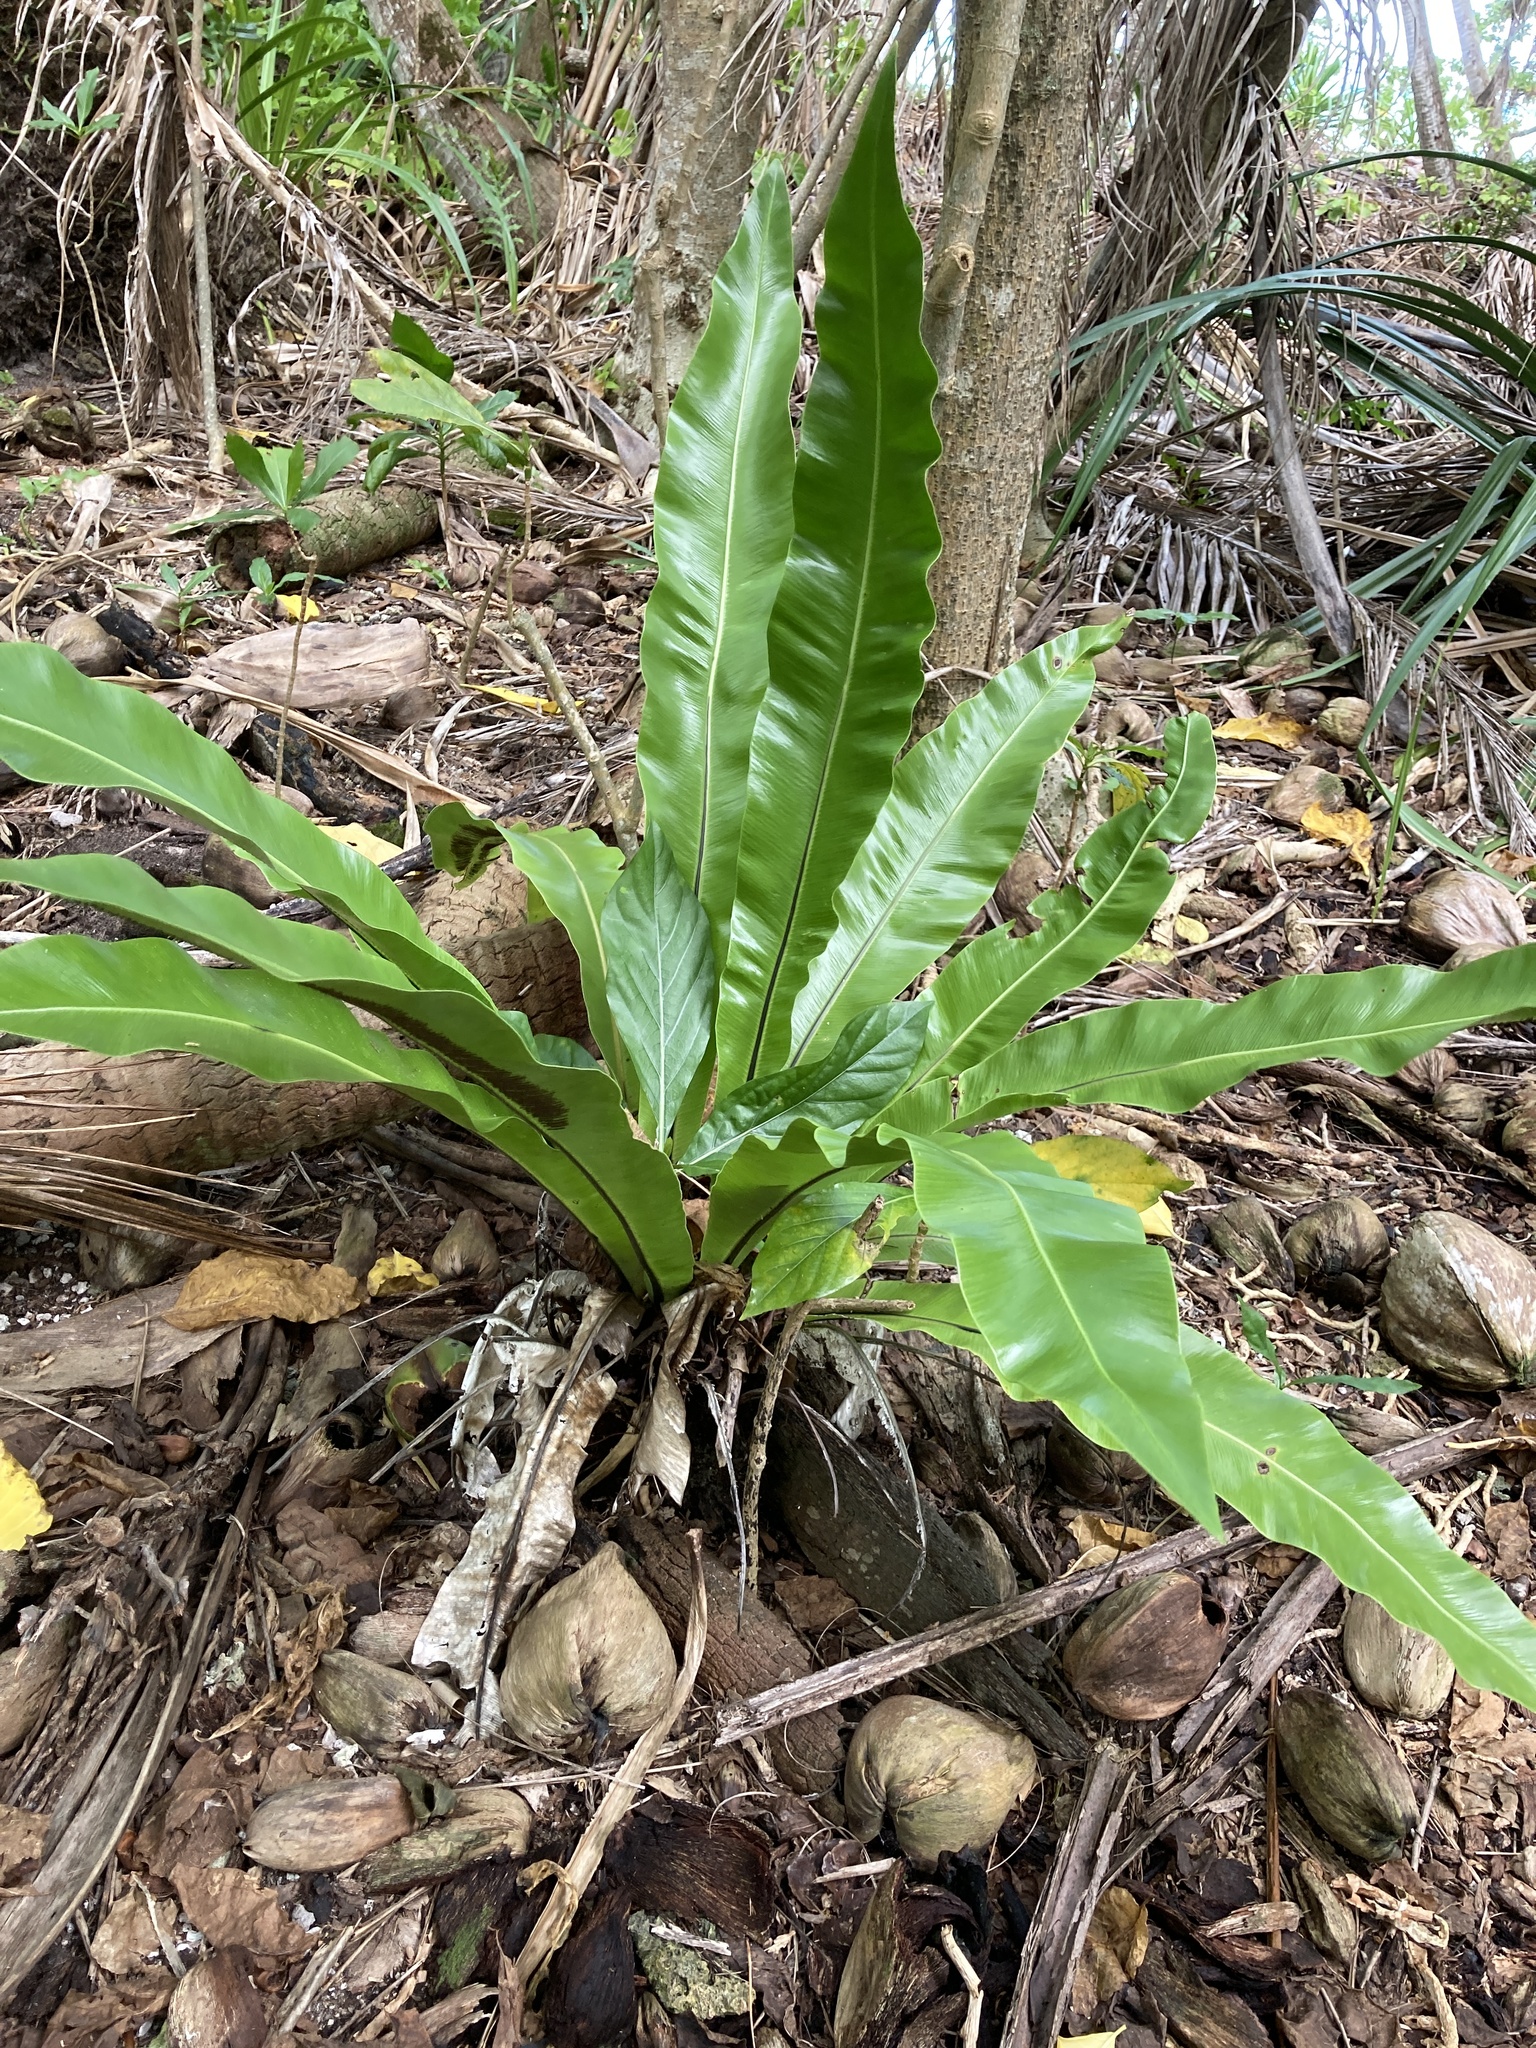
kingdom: Plantae
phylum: Tracheophyta
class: Polypodiopsida
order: Polypodiales
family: Aspleniaceae
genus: Asplenium
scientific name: Asplenium nidus
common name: Bird's-nest fern
